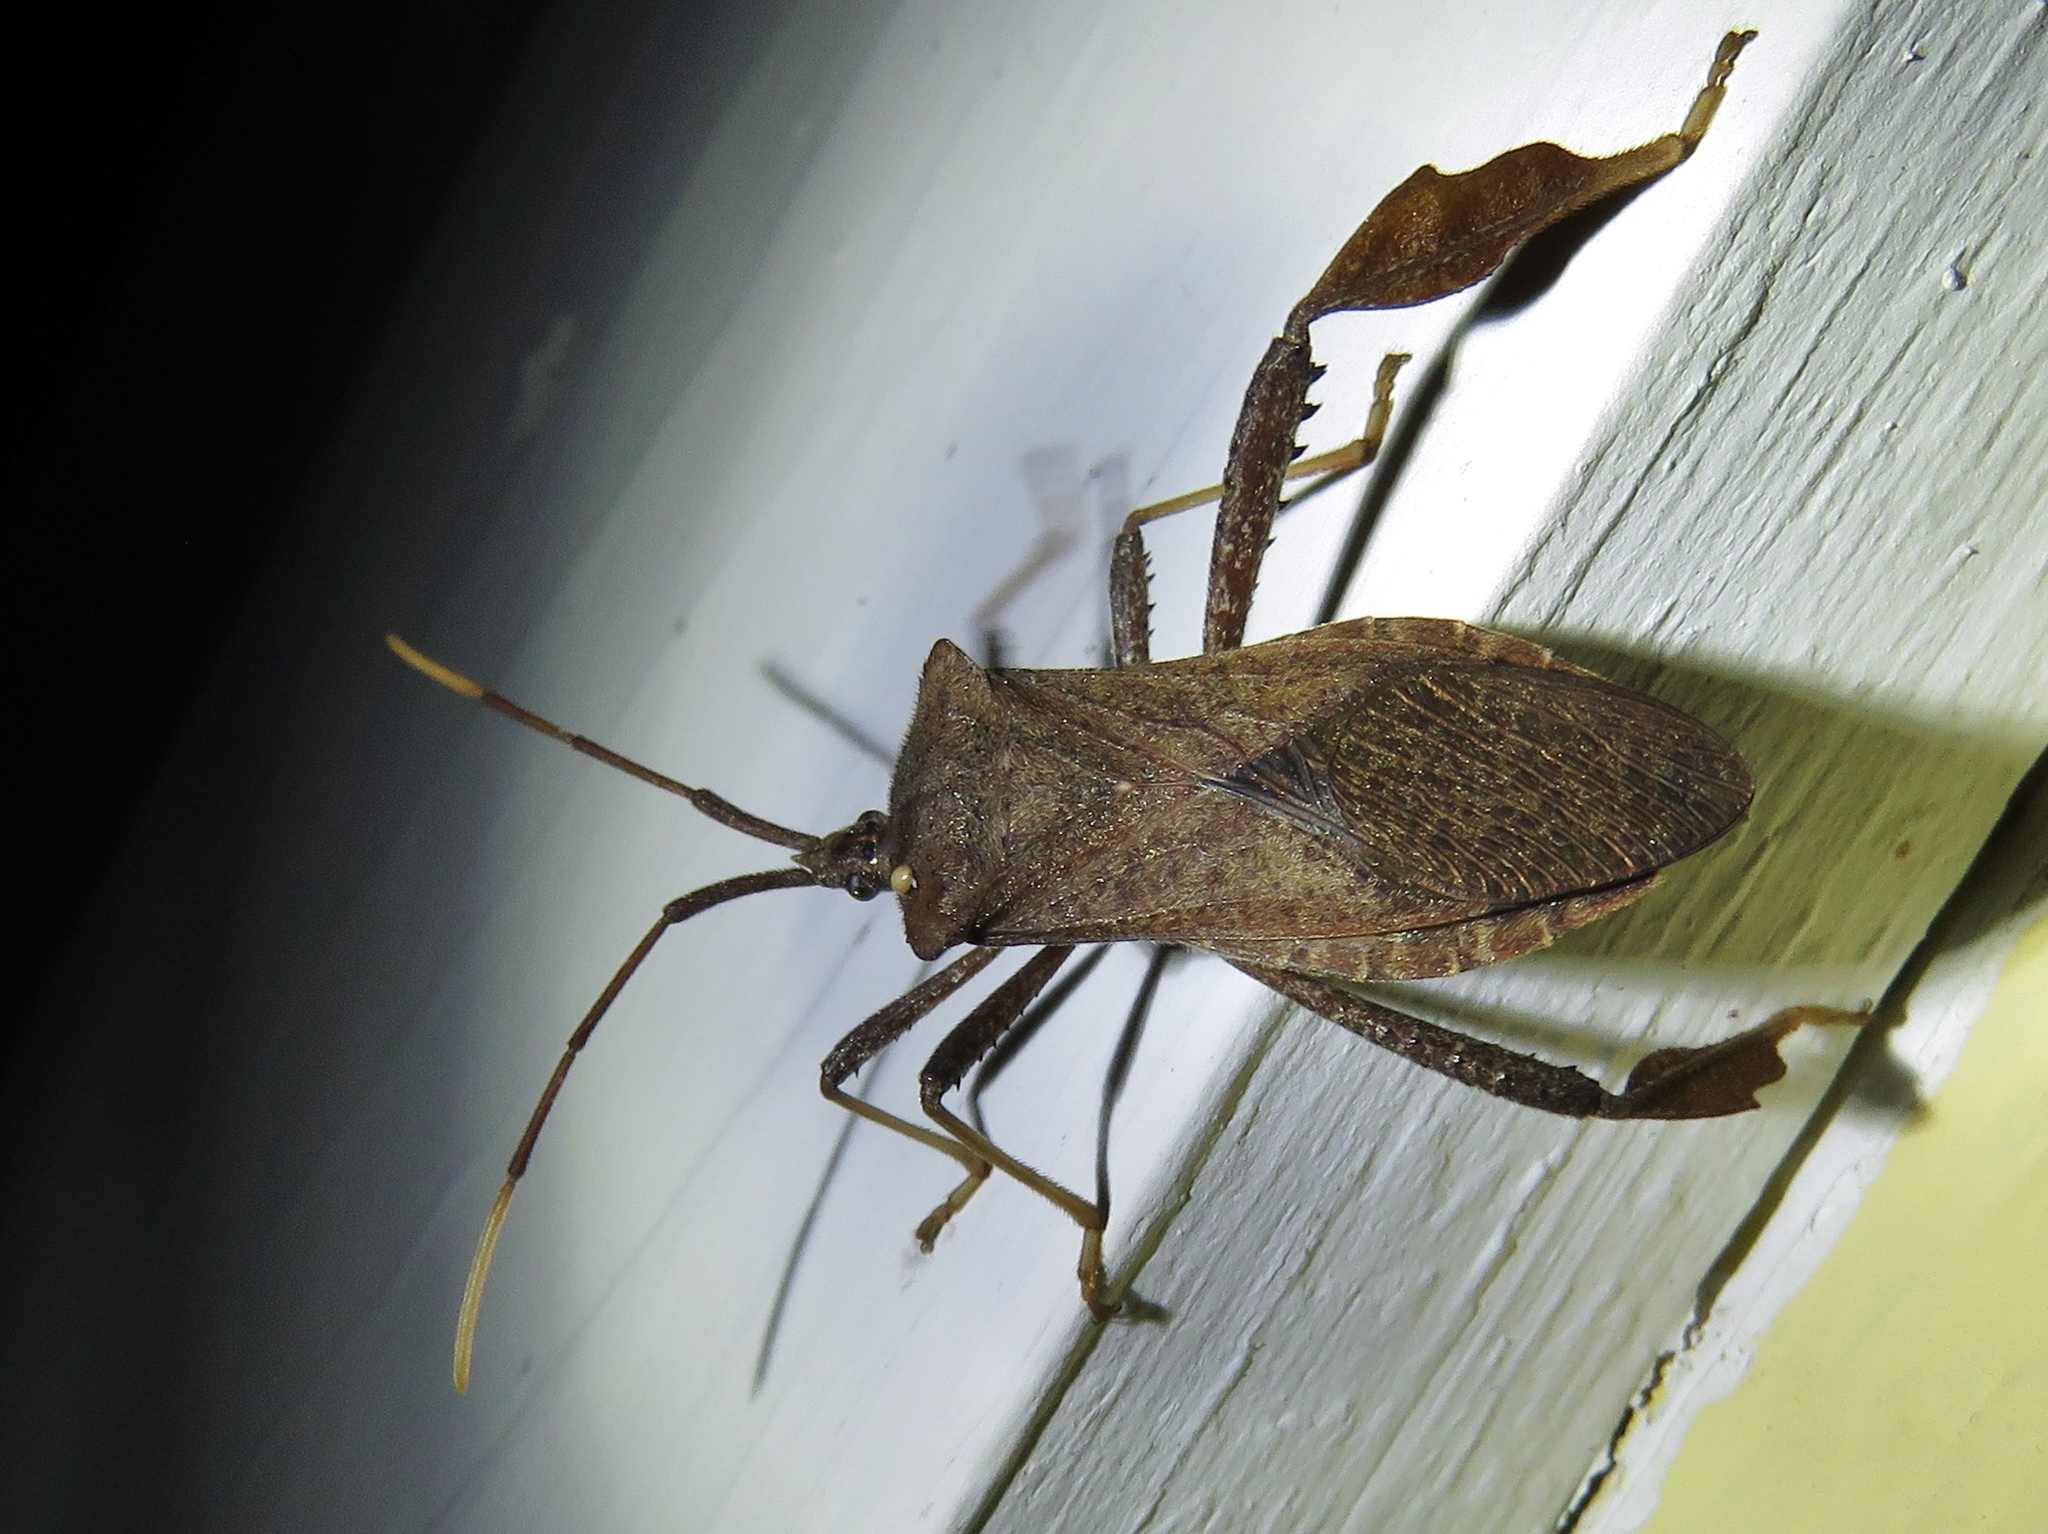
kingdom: Animalia
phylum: Arthropoda
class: Insecta
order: Hemiptera
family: Coreidae
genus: Acanthocephala
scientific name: Acanthocephala terminalis
